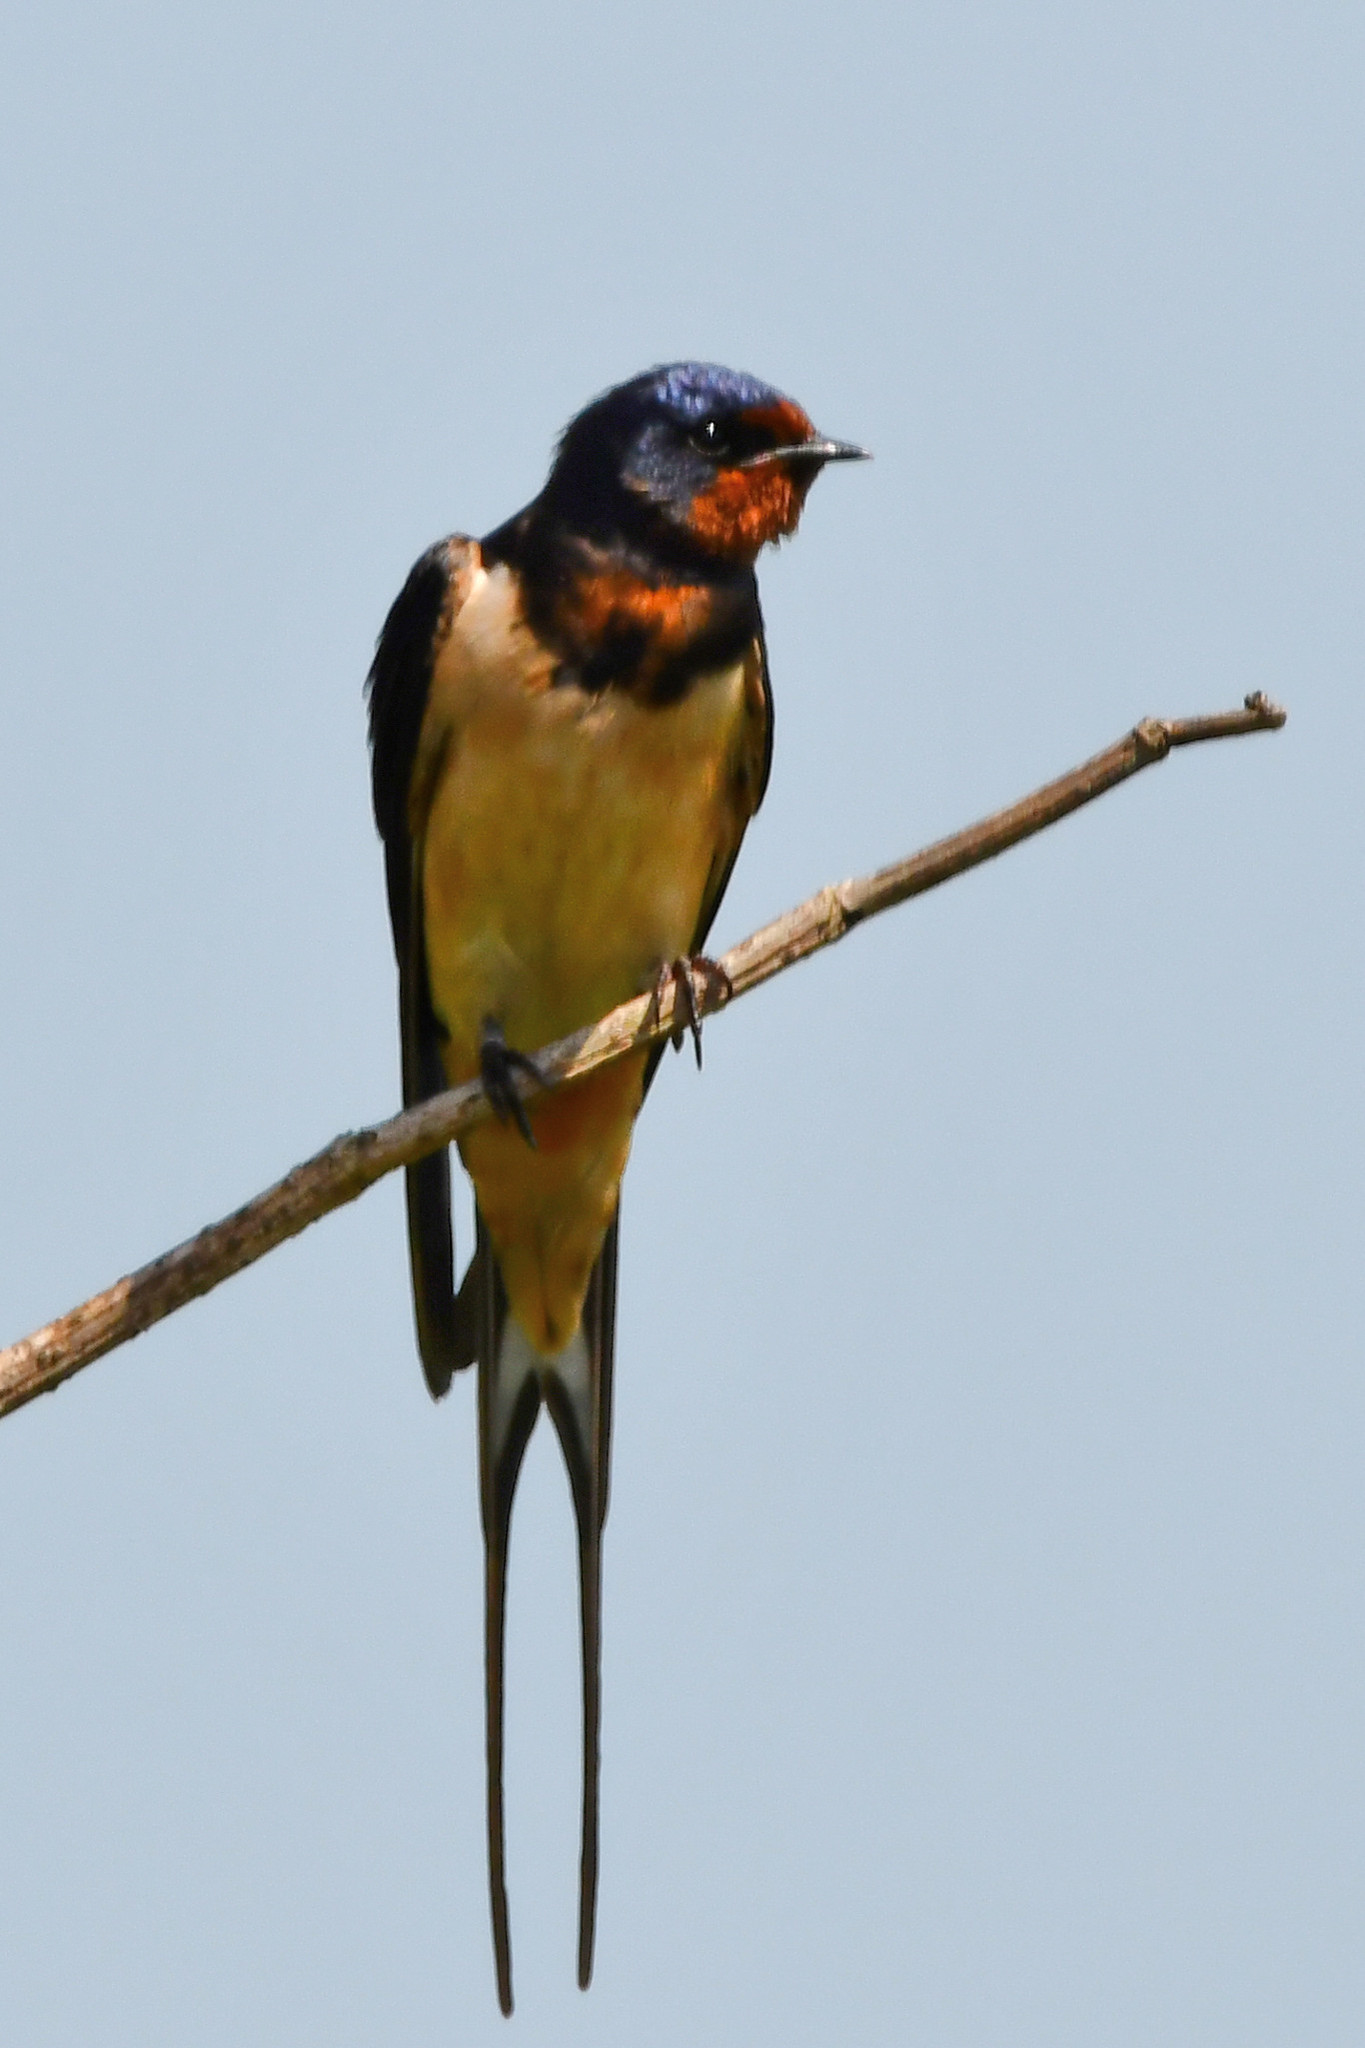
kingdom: Animalia
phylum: Chordata
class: Aves
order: Passeriformes
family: Hirundinidae
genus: Hirundo
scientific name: Hirundo rustica
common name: Barn swallow
